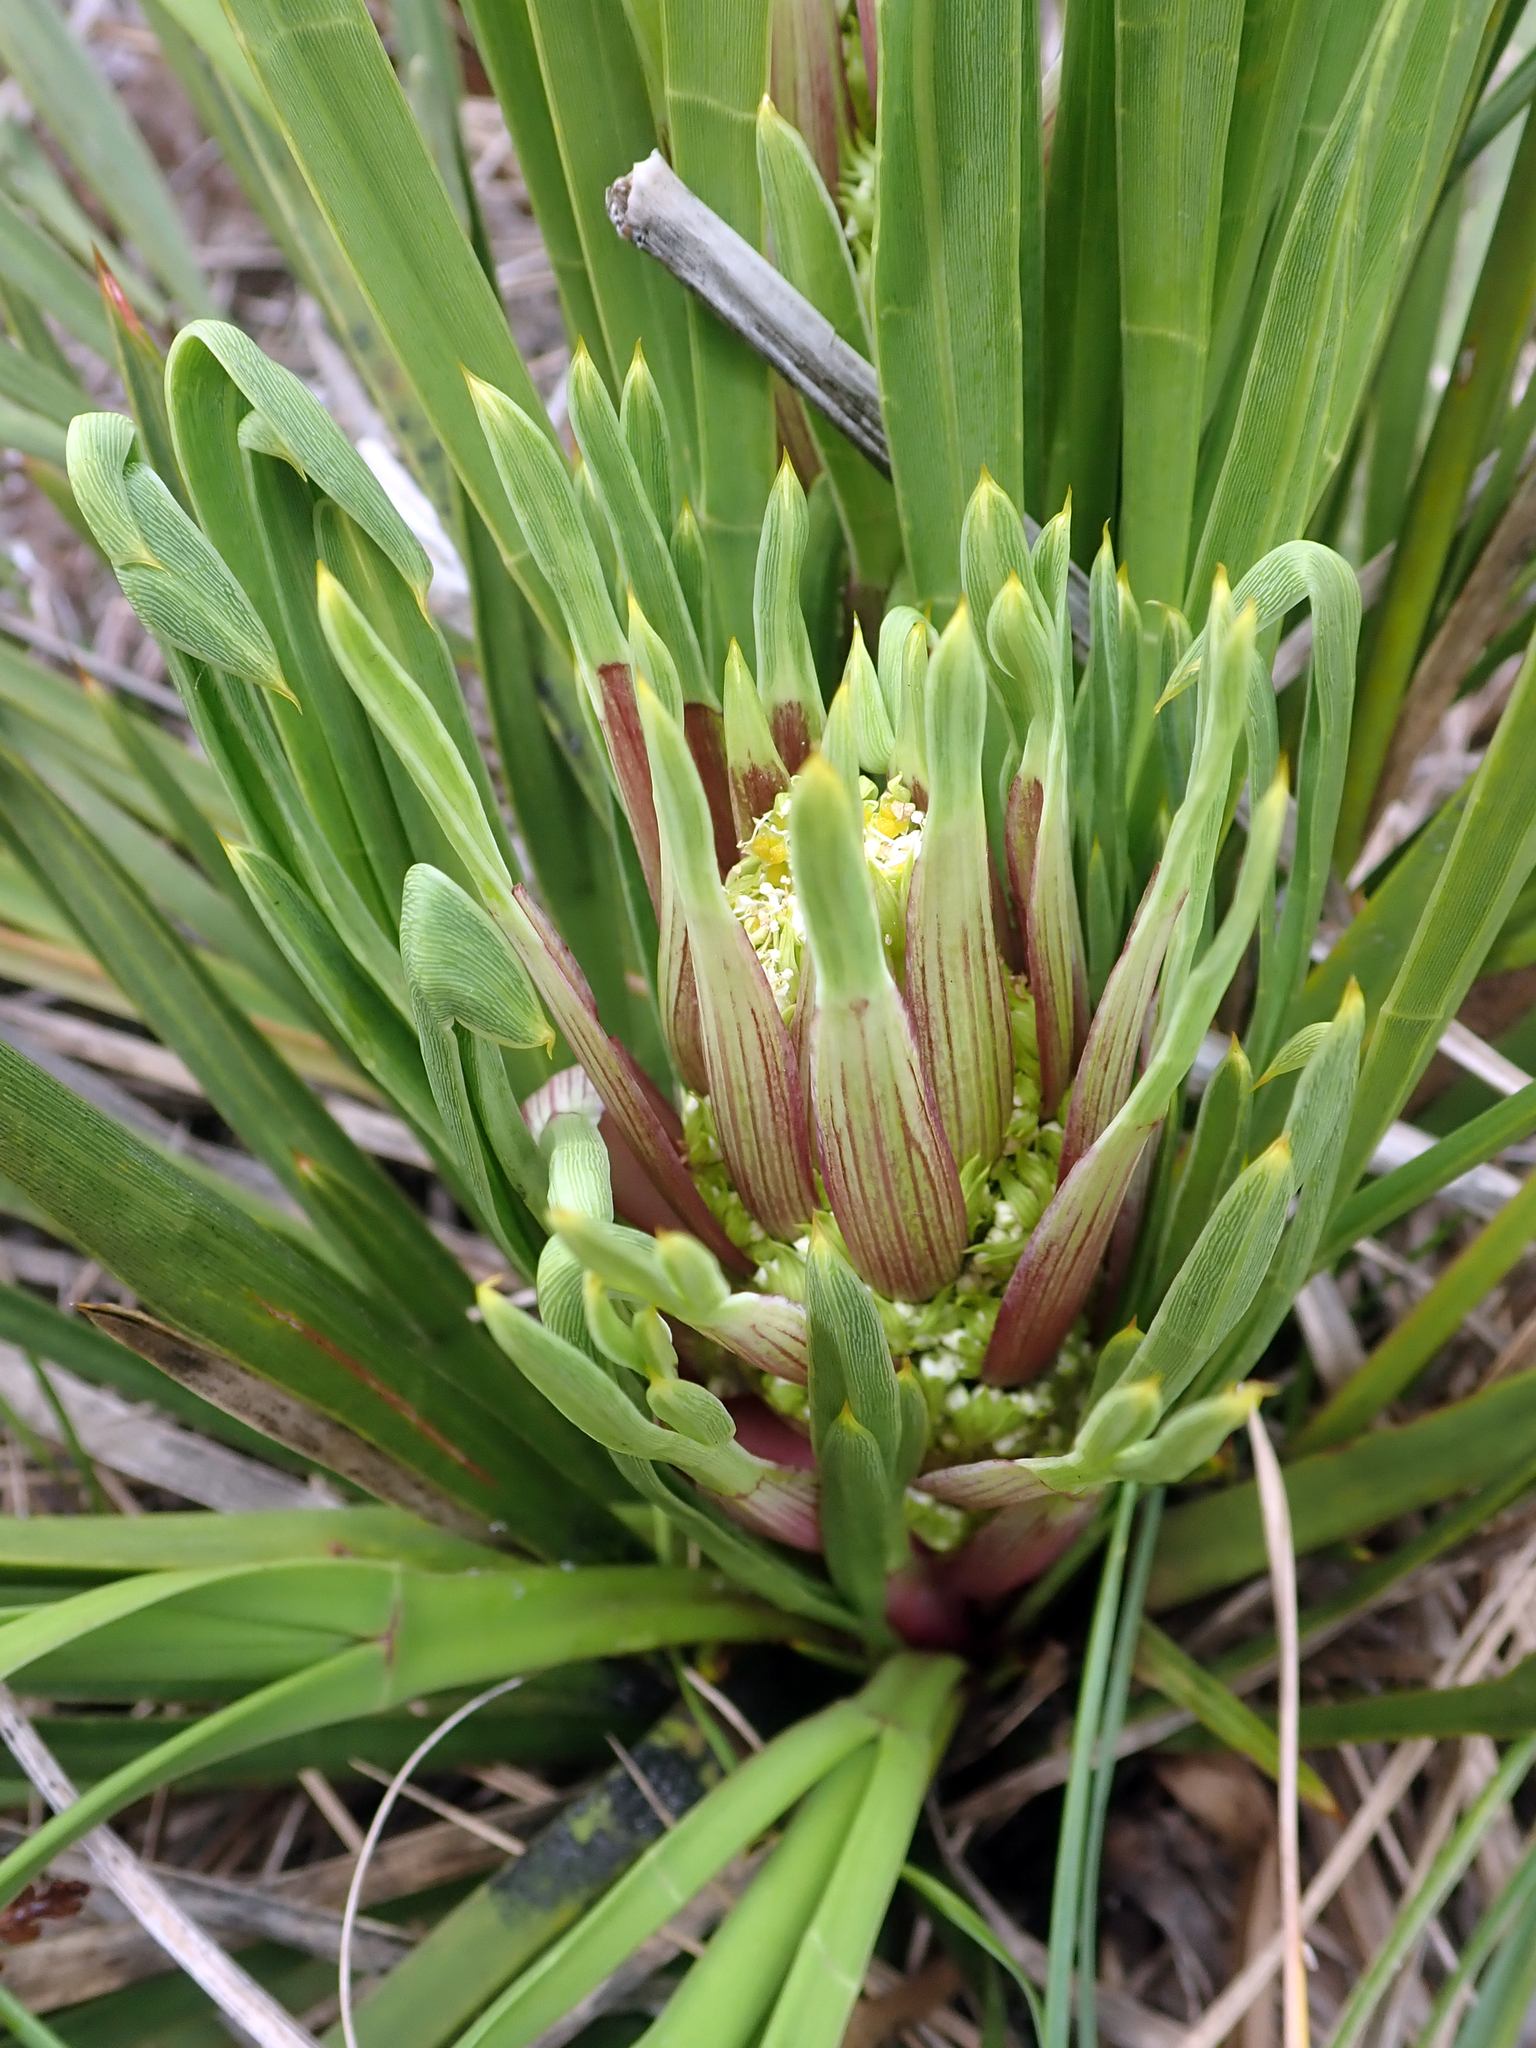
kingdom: Plantae
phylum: Tracheophyta
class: Magnoliopsida
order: Apiales
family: Apiaceae
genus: Aciphylla
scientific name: Aciphylla traversii
